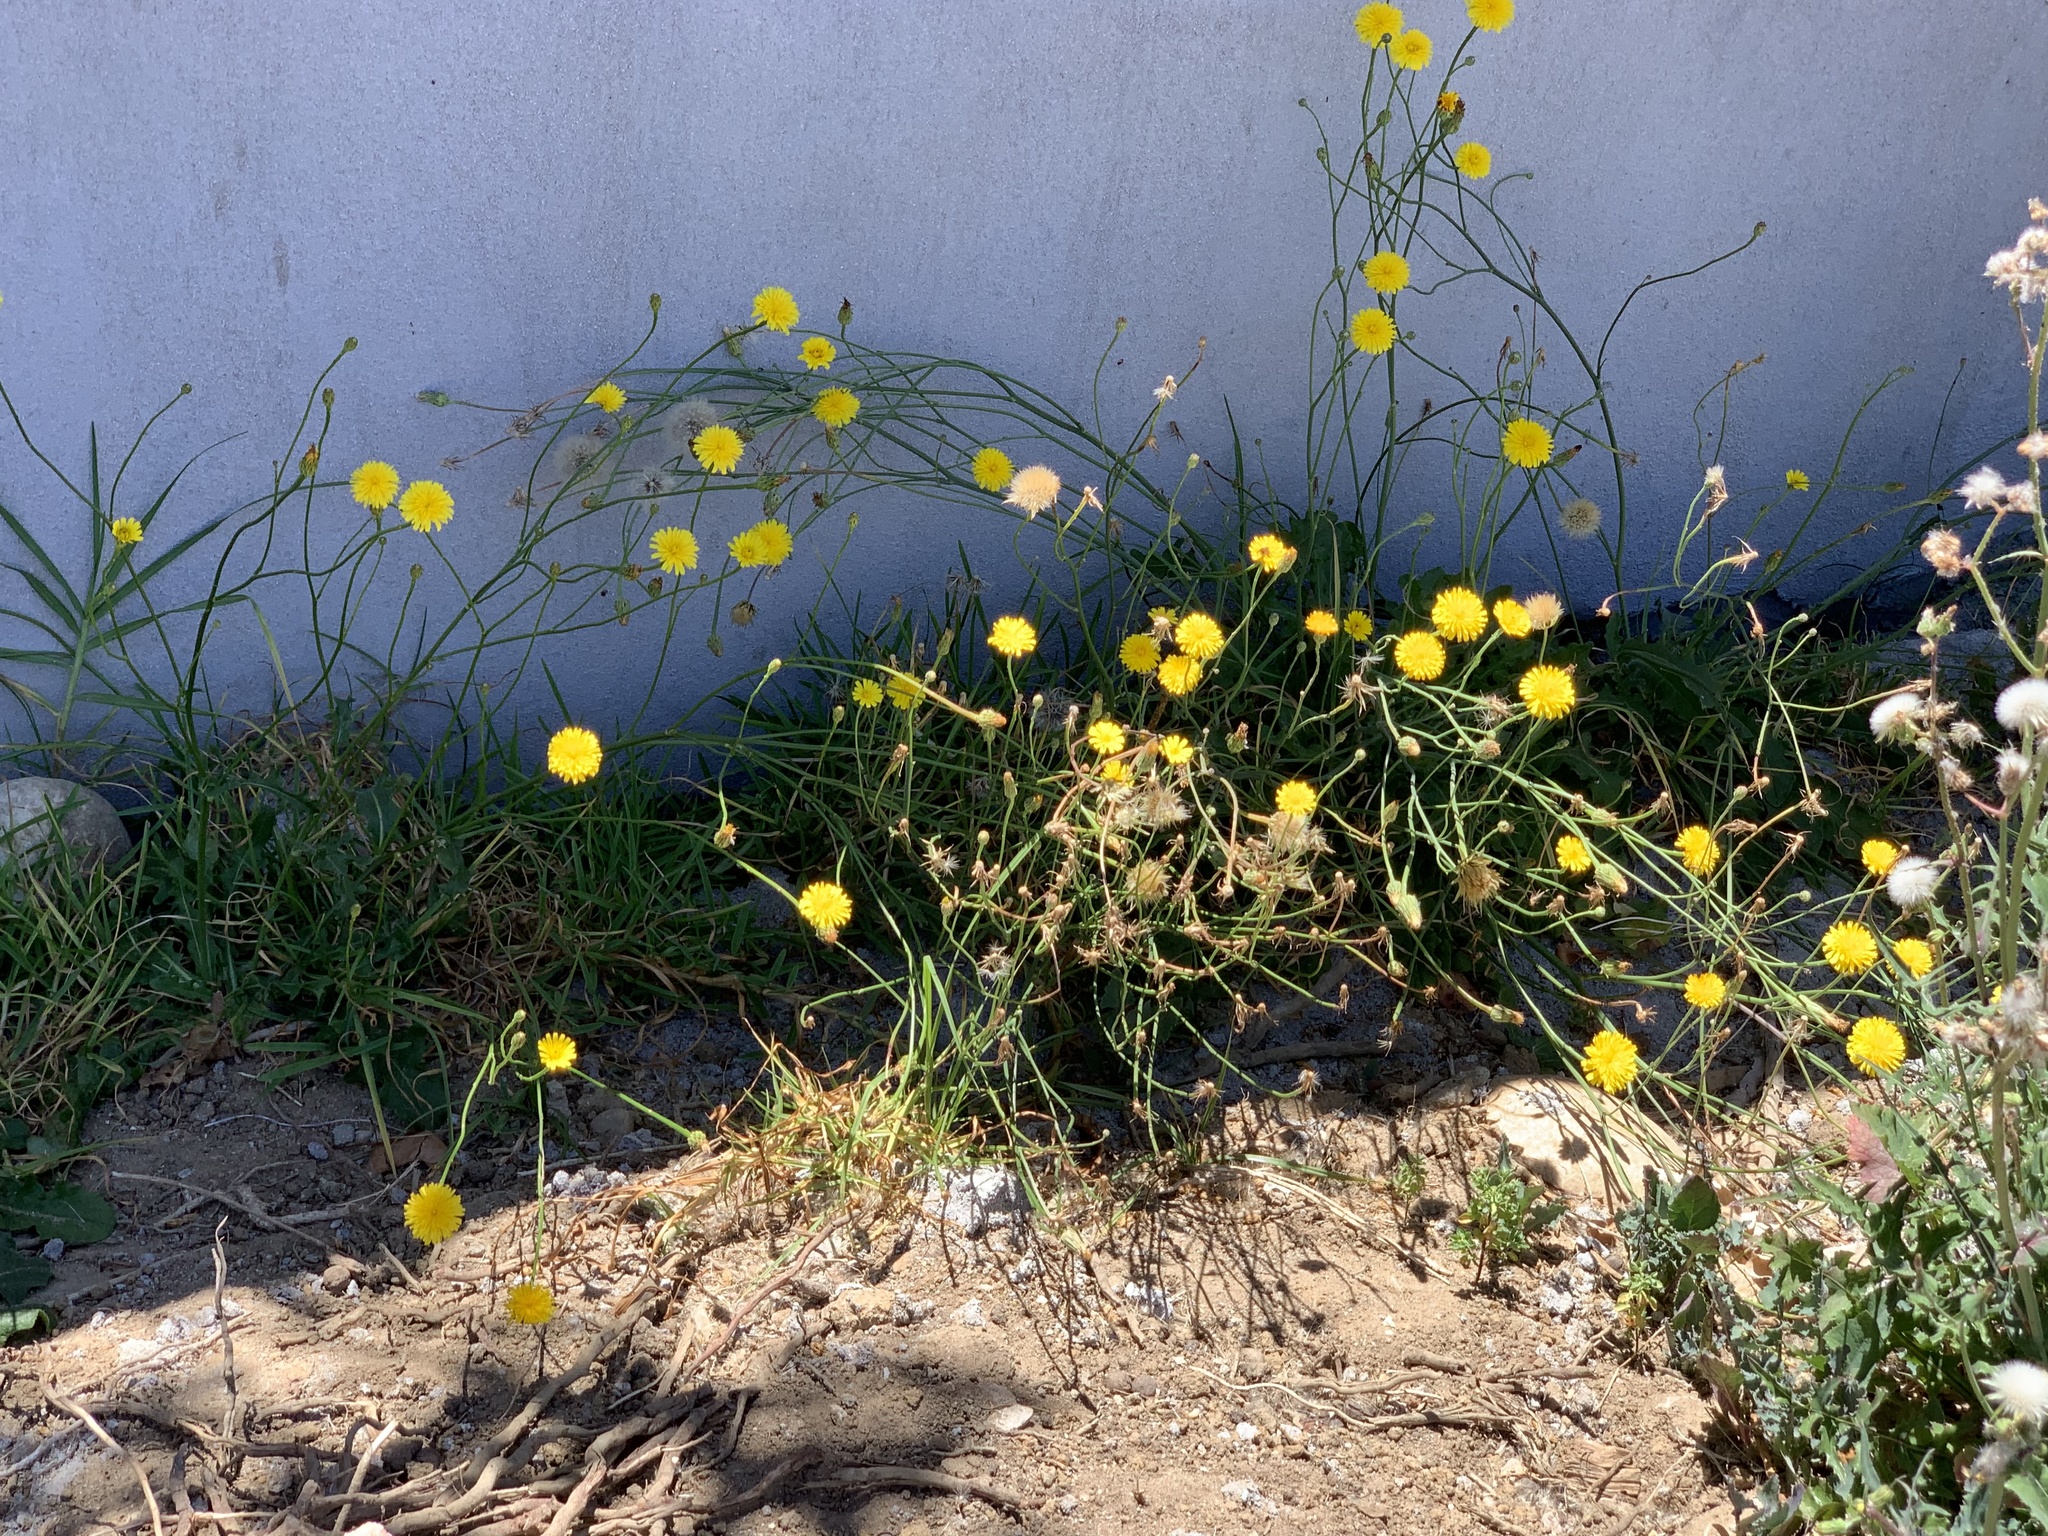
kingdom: Plantae
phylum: Tracheophyta
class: Magnoliopsida
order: Asterales
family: Asteraceae
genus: Hypochaeris
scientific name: Hypochaeris radicata
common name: Flatweed
